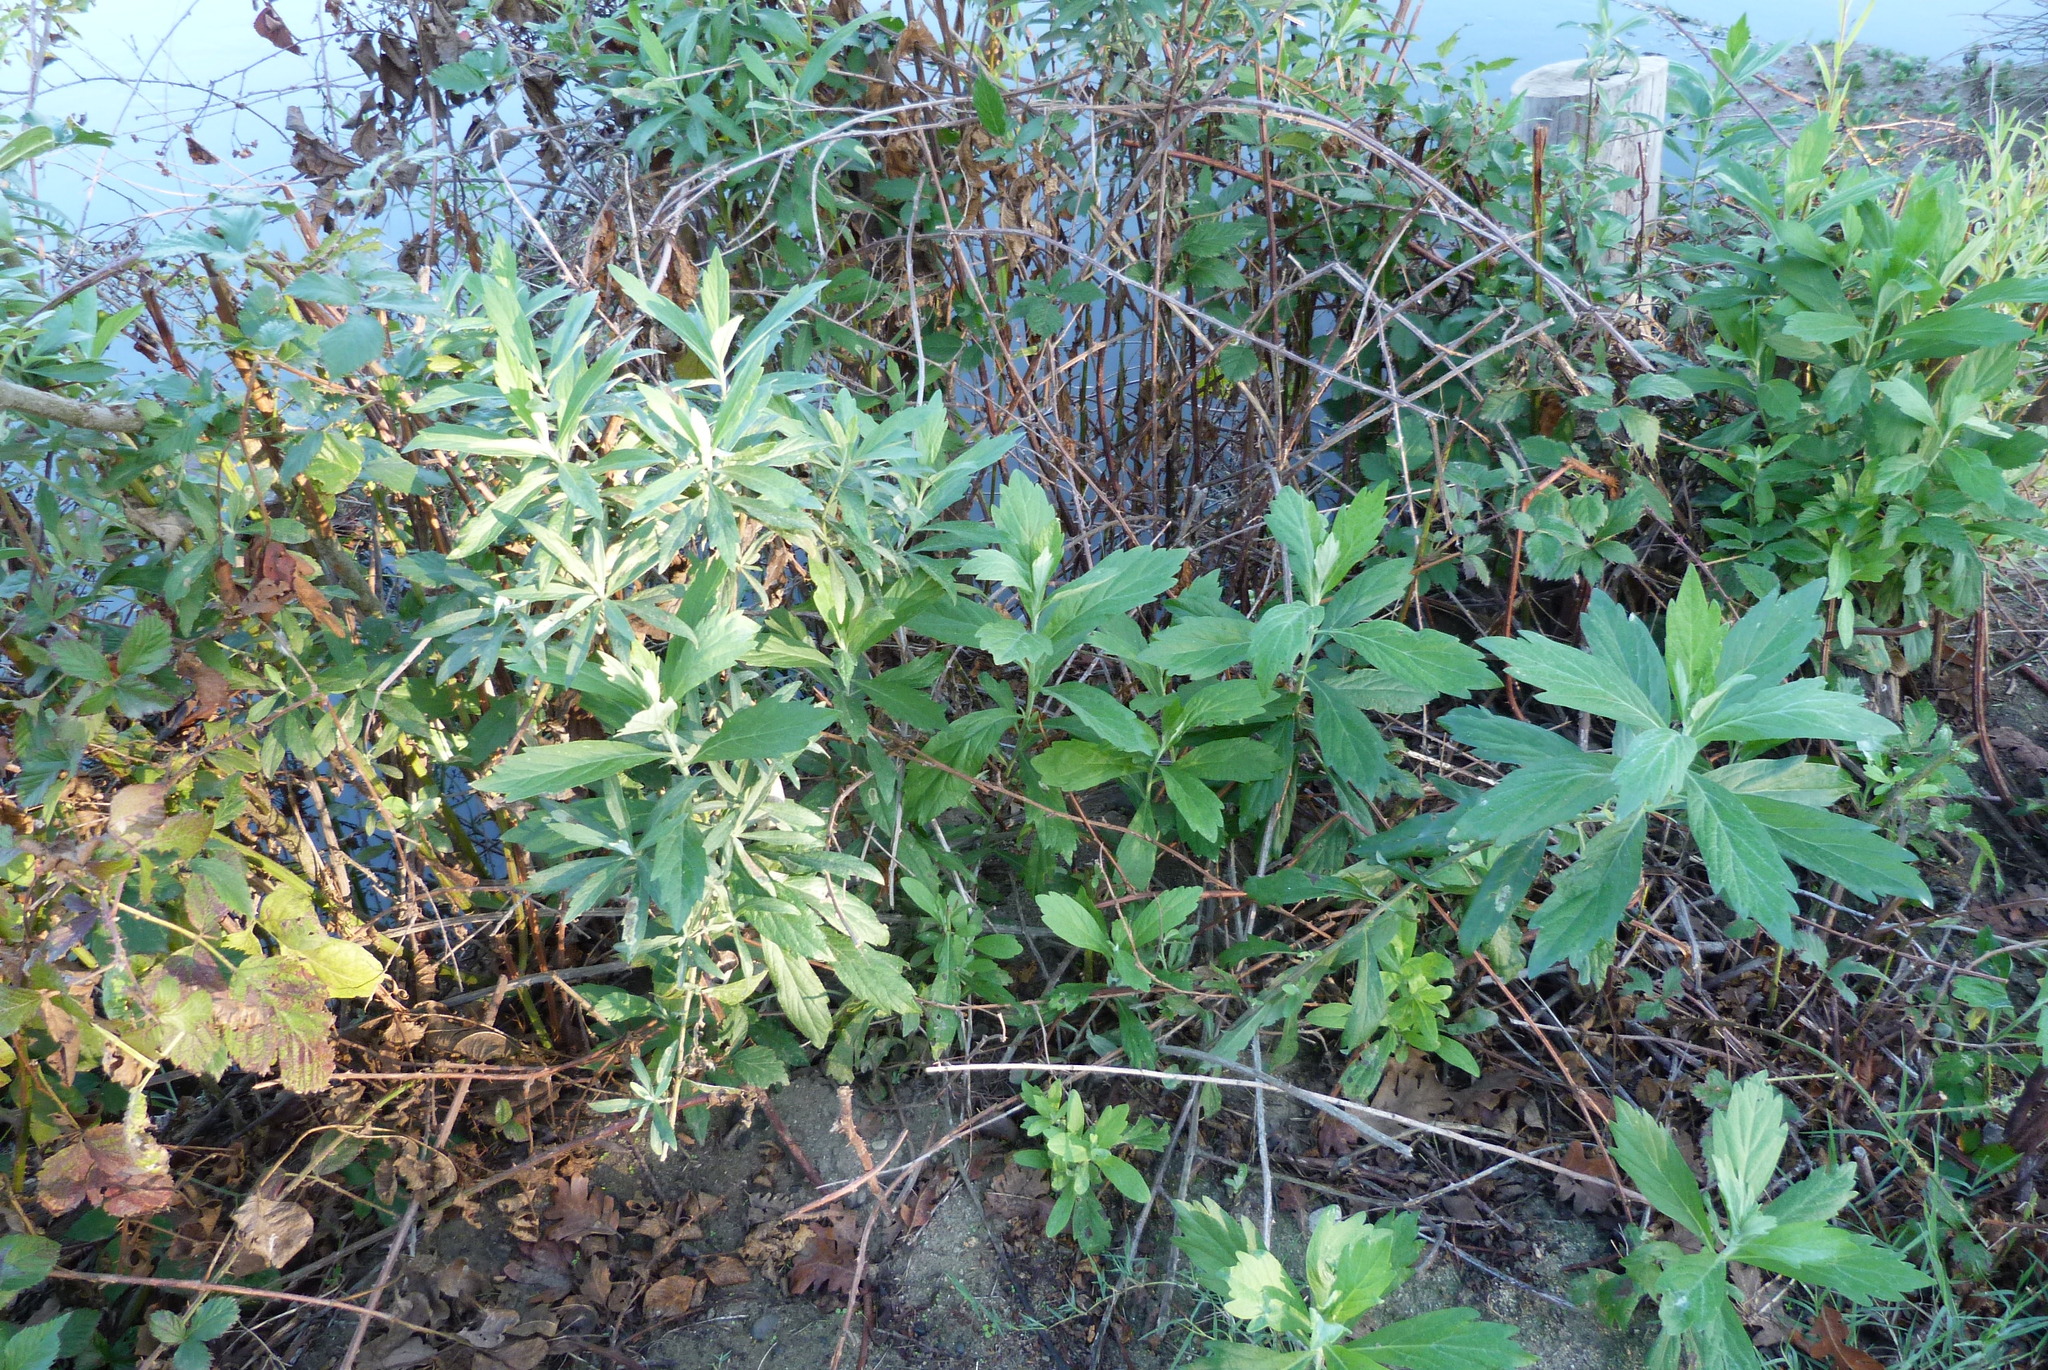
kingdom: Plantae
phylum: Tracheophyta
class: Magnoliopsida
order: Asterales
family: Asteraceae
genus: Artemisia
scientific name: Artemisia douglasiana
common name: Northwest mugwort
